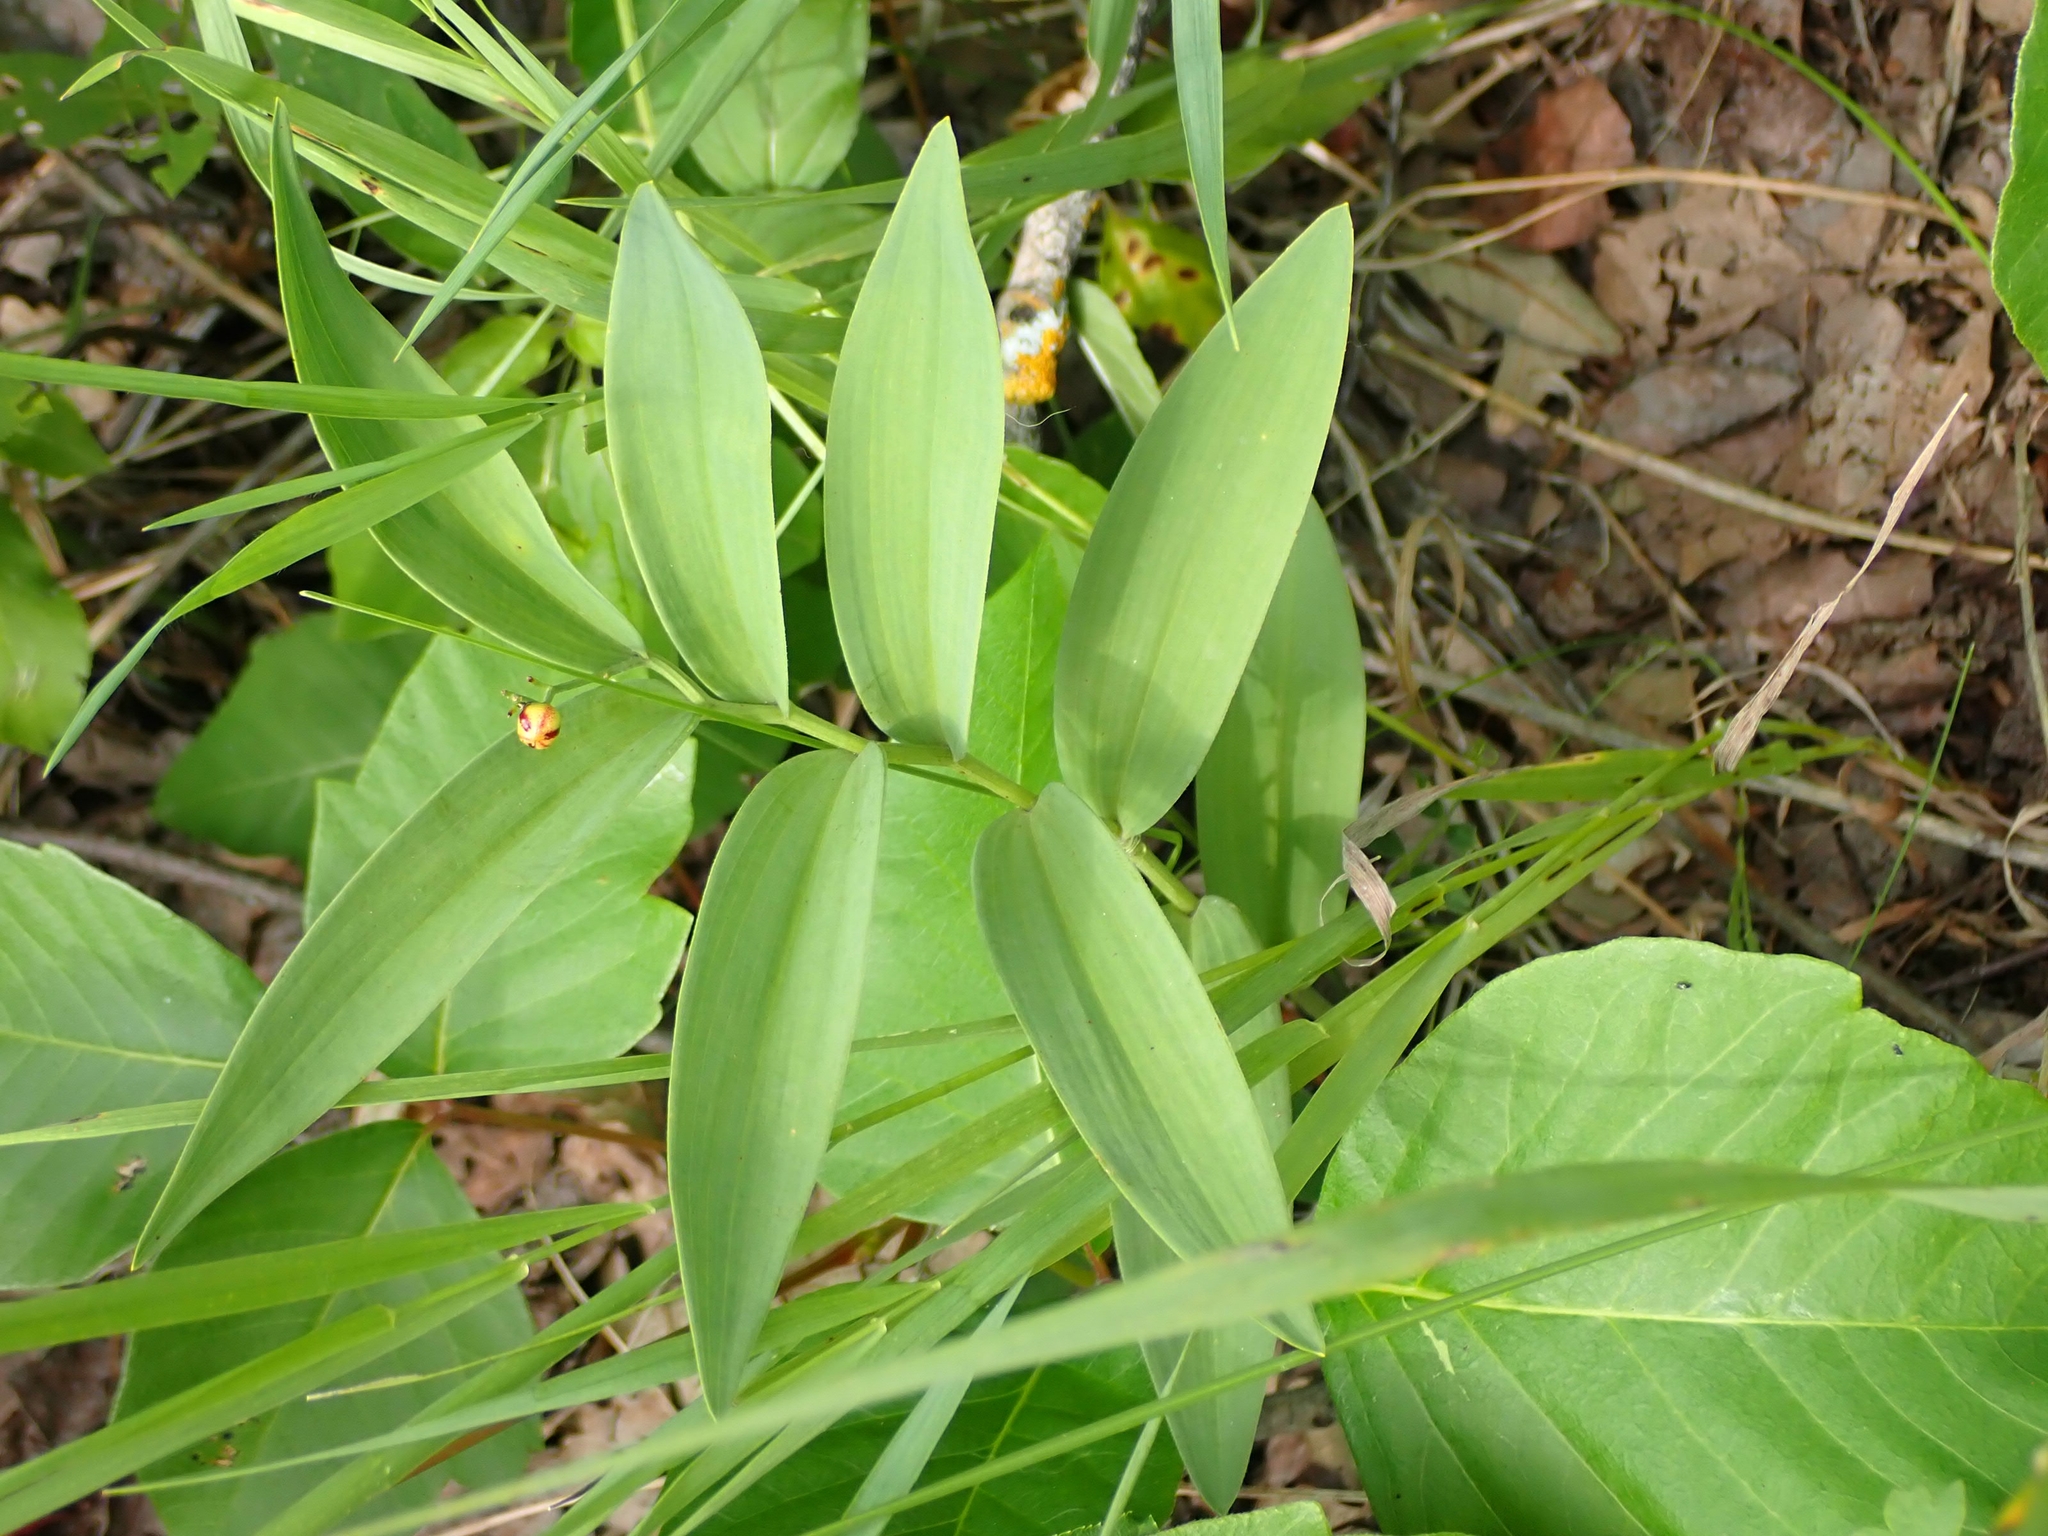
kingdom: Plantae
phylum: Tracheophyta
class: Liliopsida
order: Asparagales
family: Asparagaceae
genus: Maianthemum
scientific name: Maianthemum stellatum
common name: Little false solomon's seal
